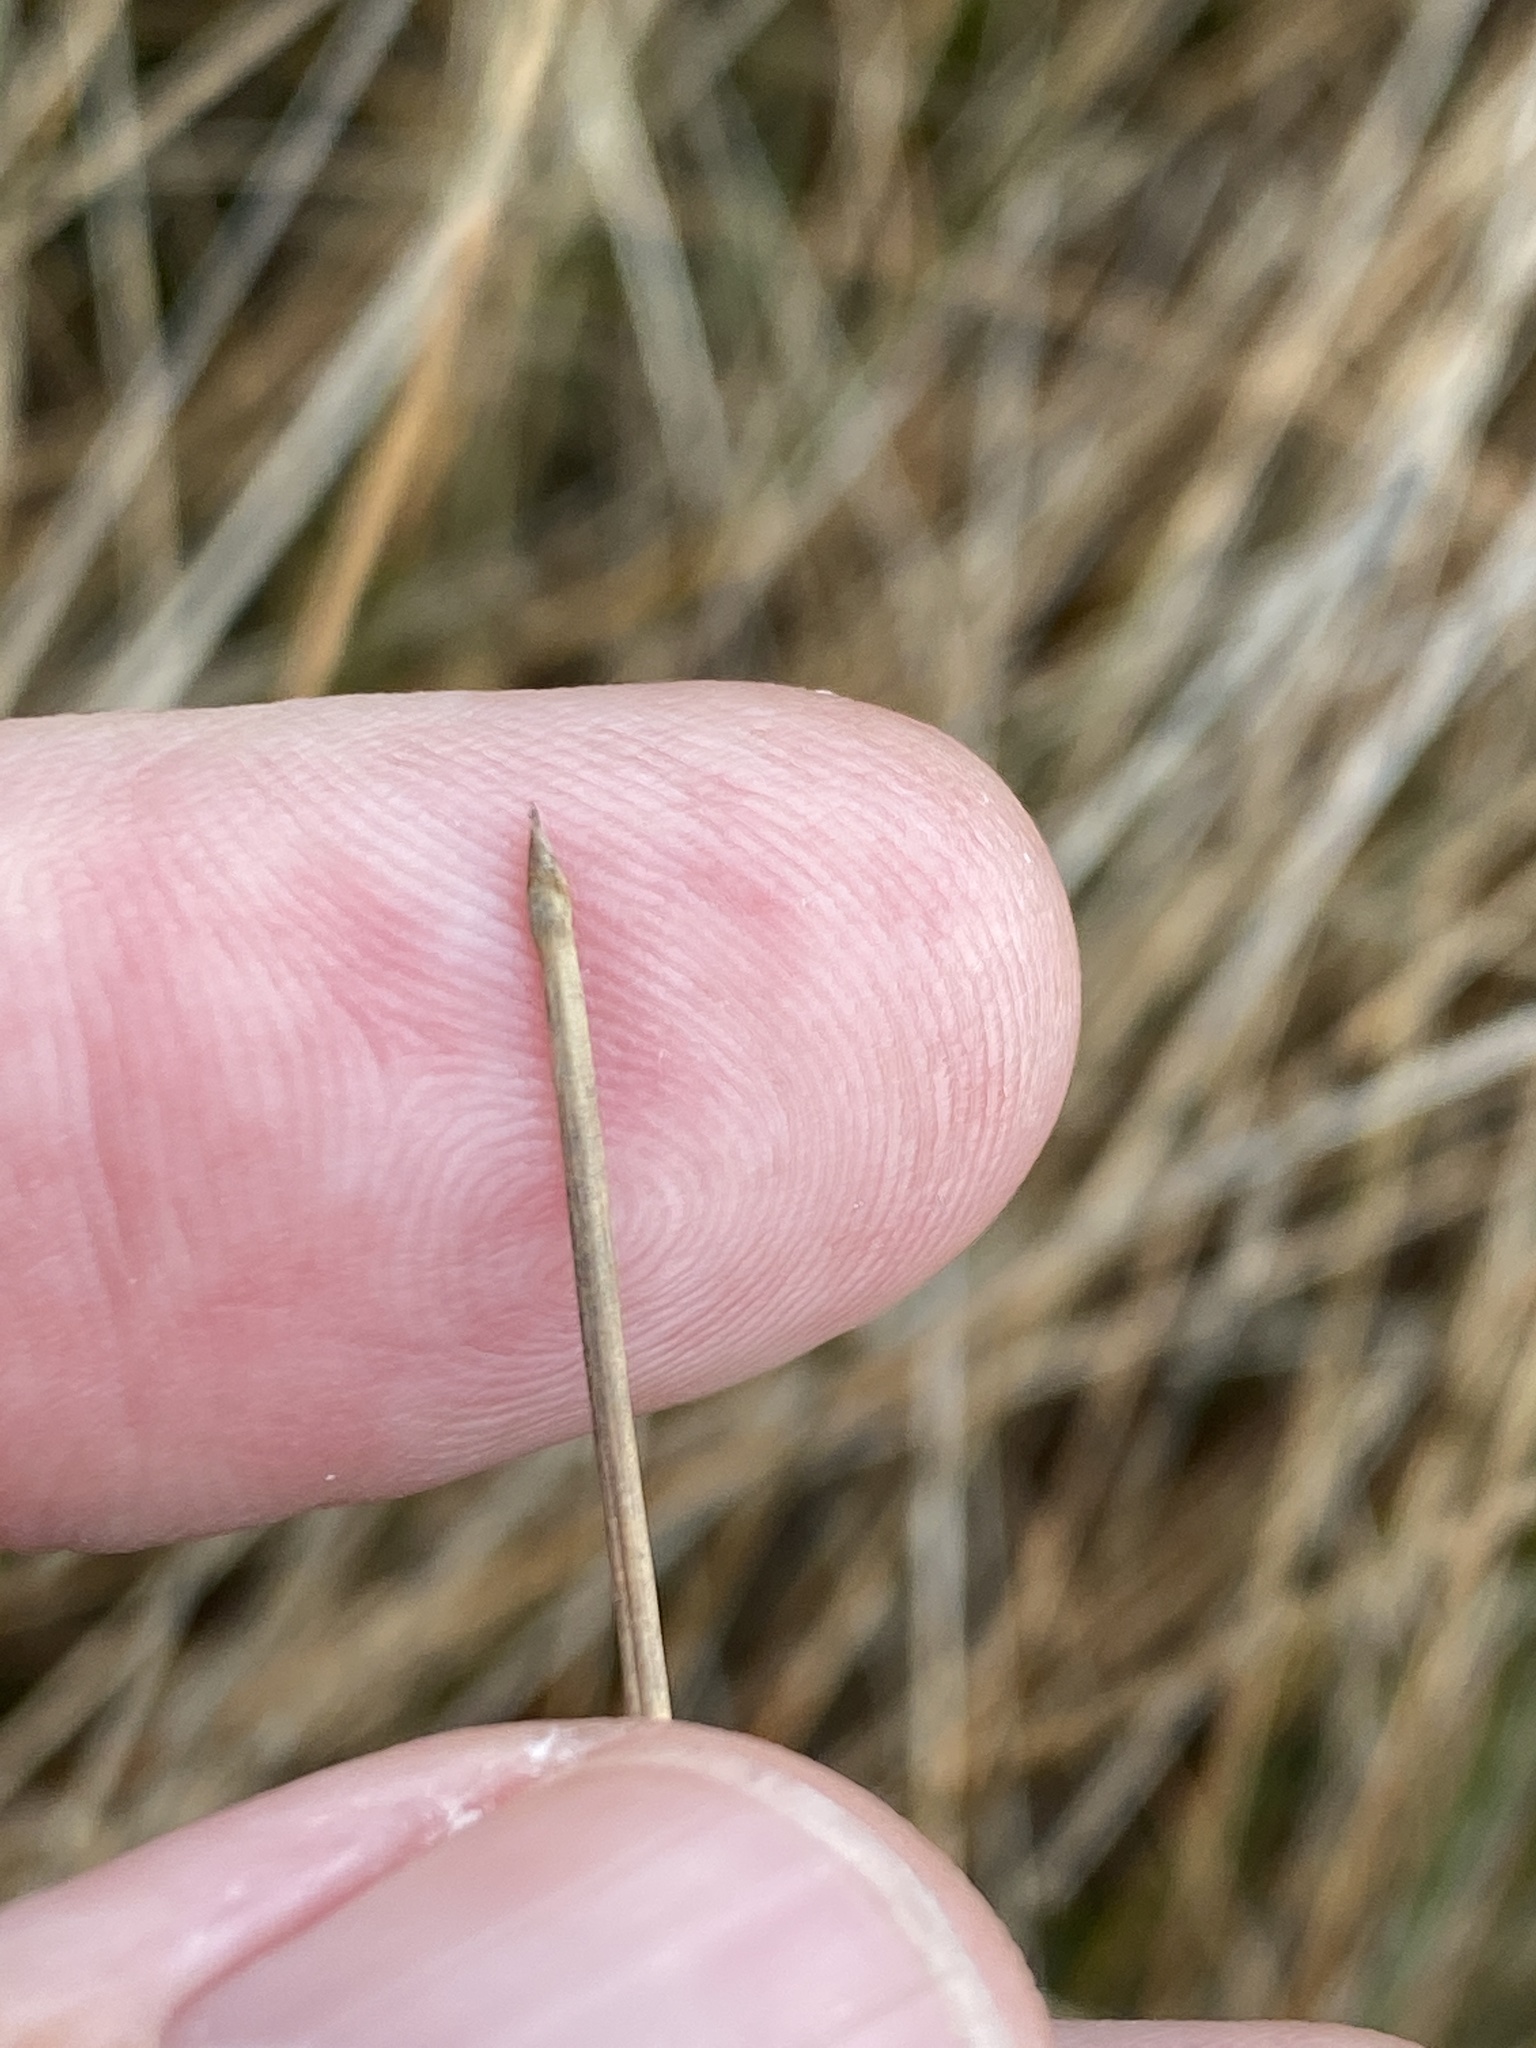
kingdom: Plantae
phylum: Tracheophyta
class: Liliopsida
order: Poales
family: Cyperaceae
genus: Eleocharis
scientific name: Eleocharis rostellata
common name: Walking sedge
